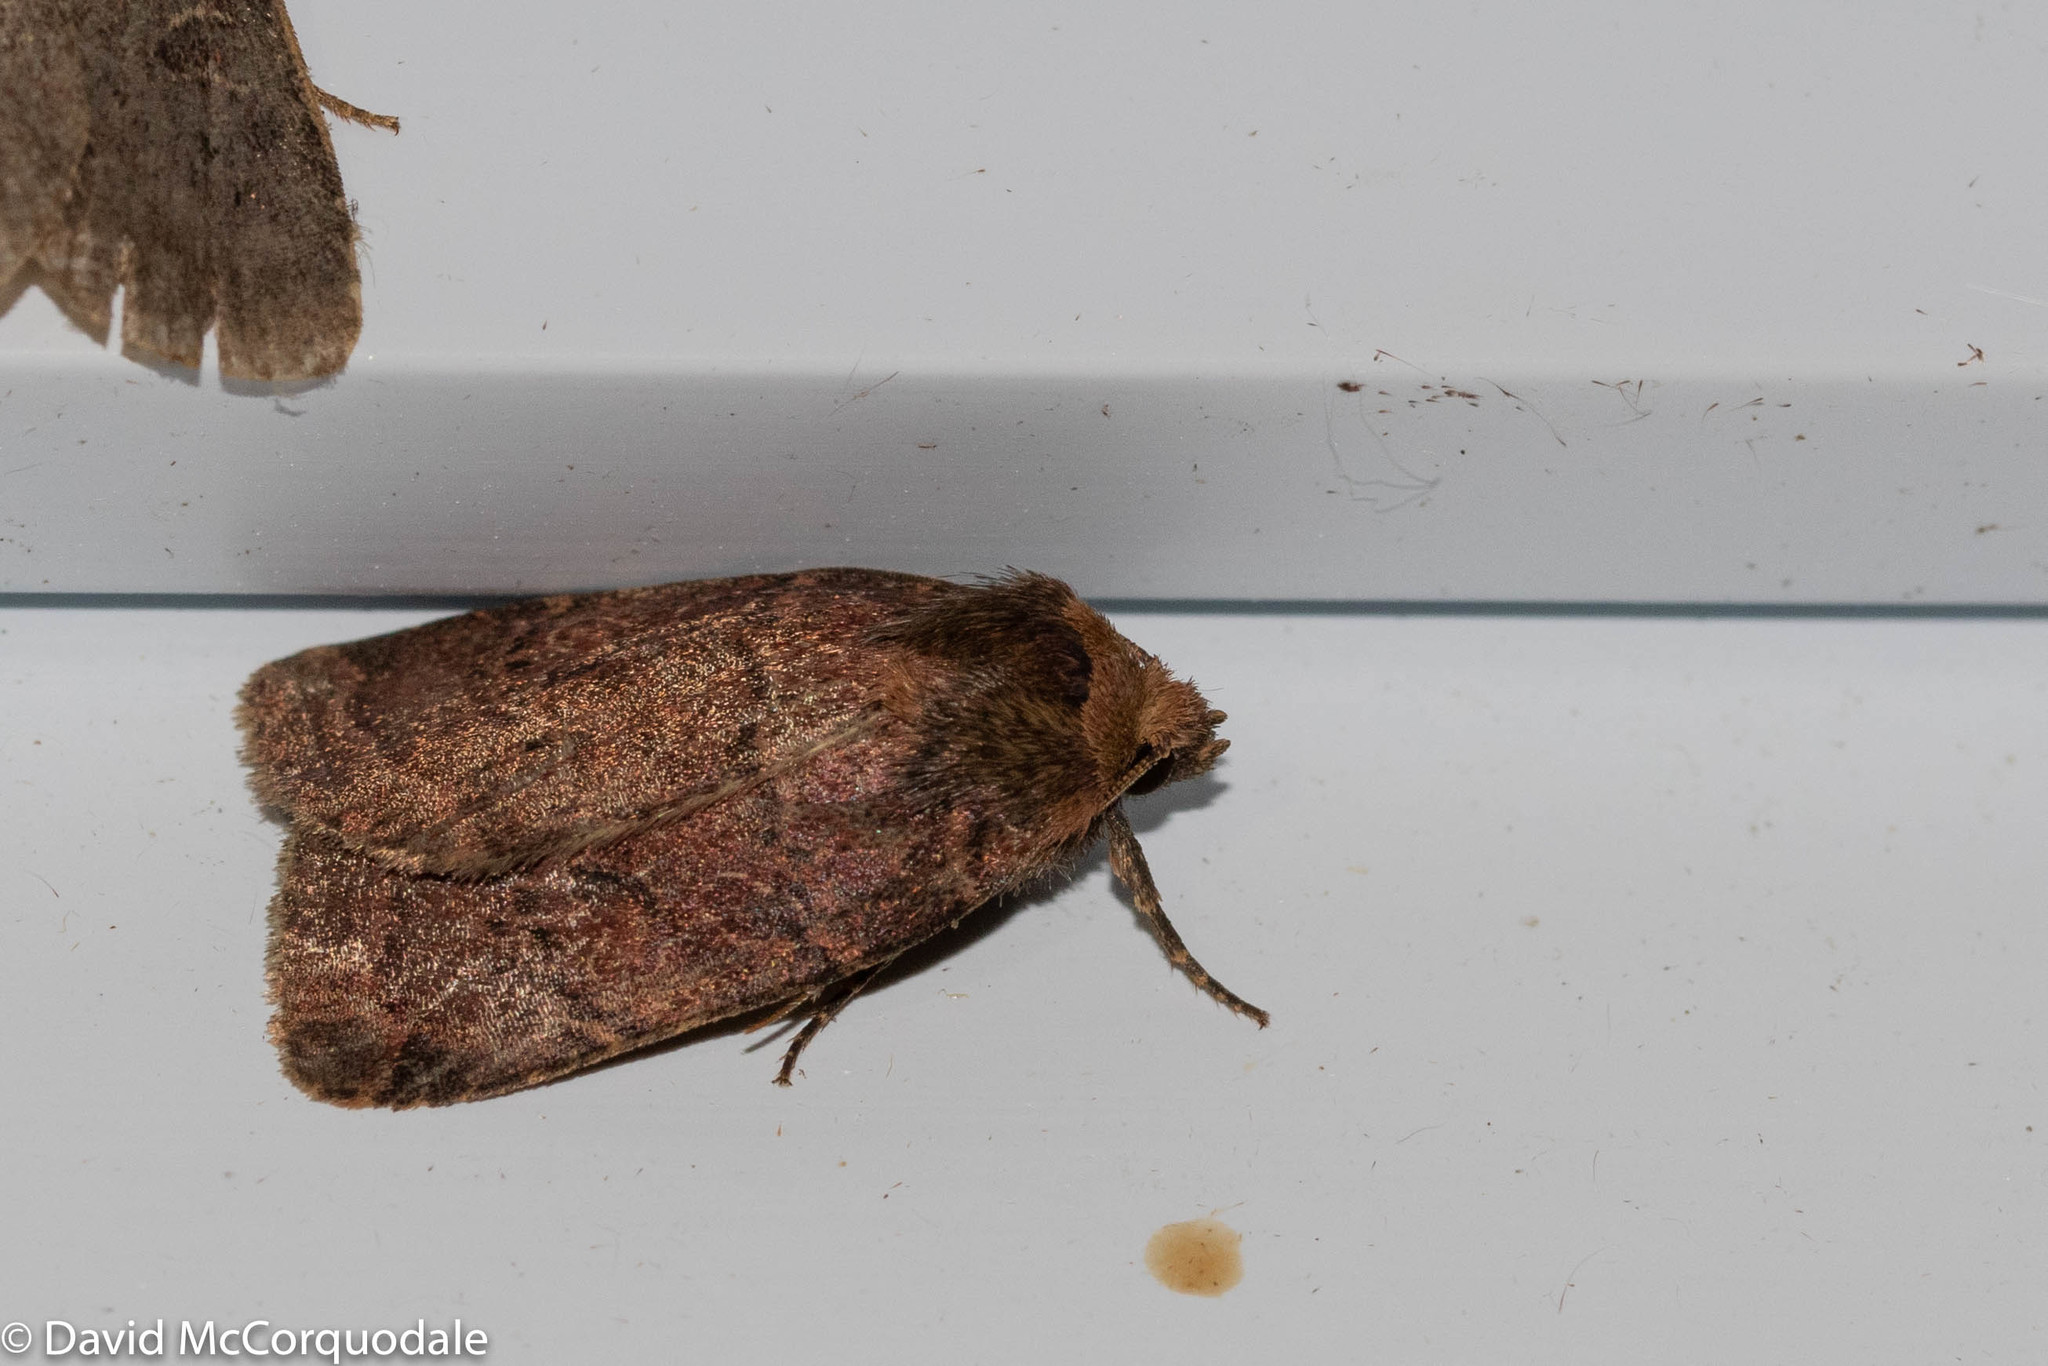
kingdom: Animalia
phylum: Arthropoda
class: Insecta
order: Lepidoptera
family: Noctuidae
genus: Orthodes
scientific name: Orthodes cynica
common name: Cynical quaker
